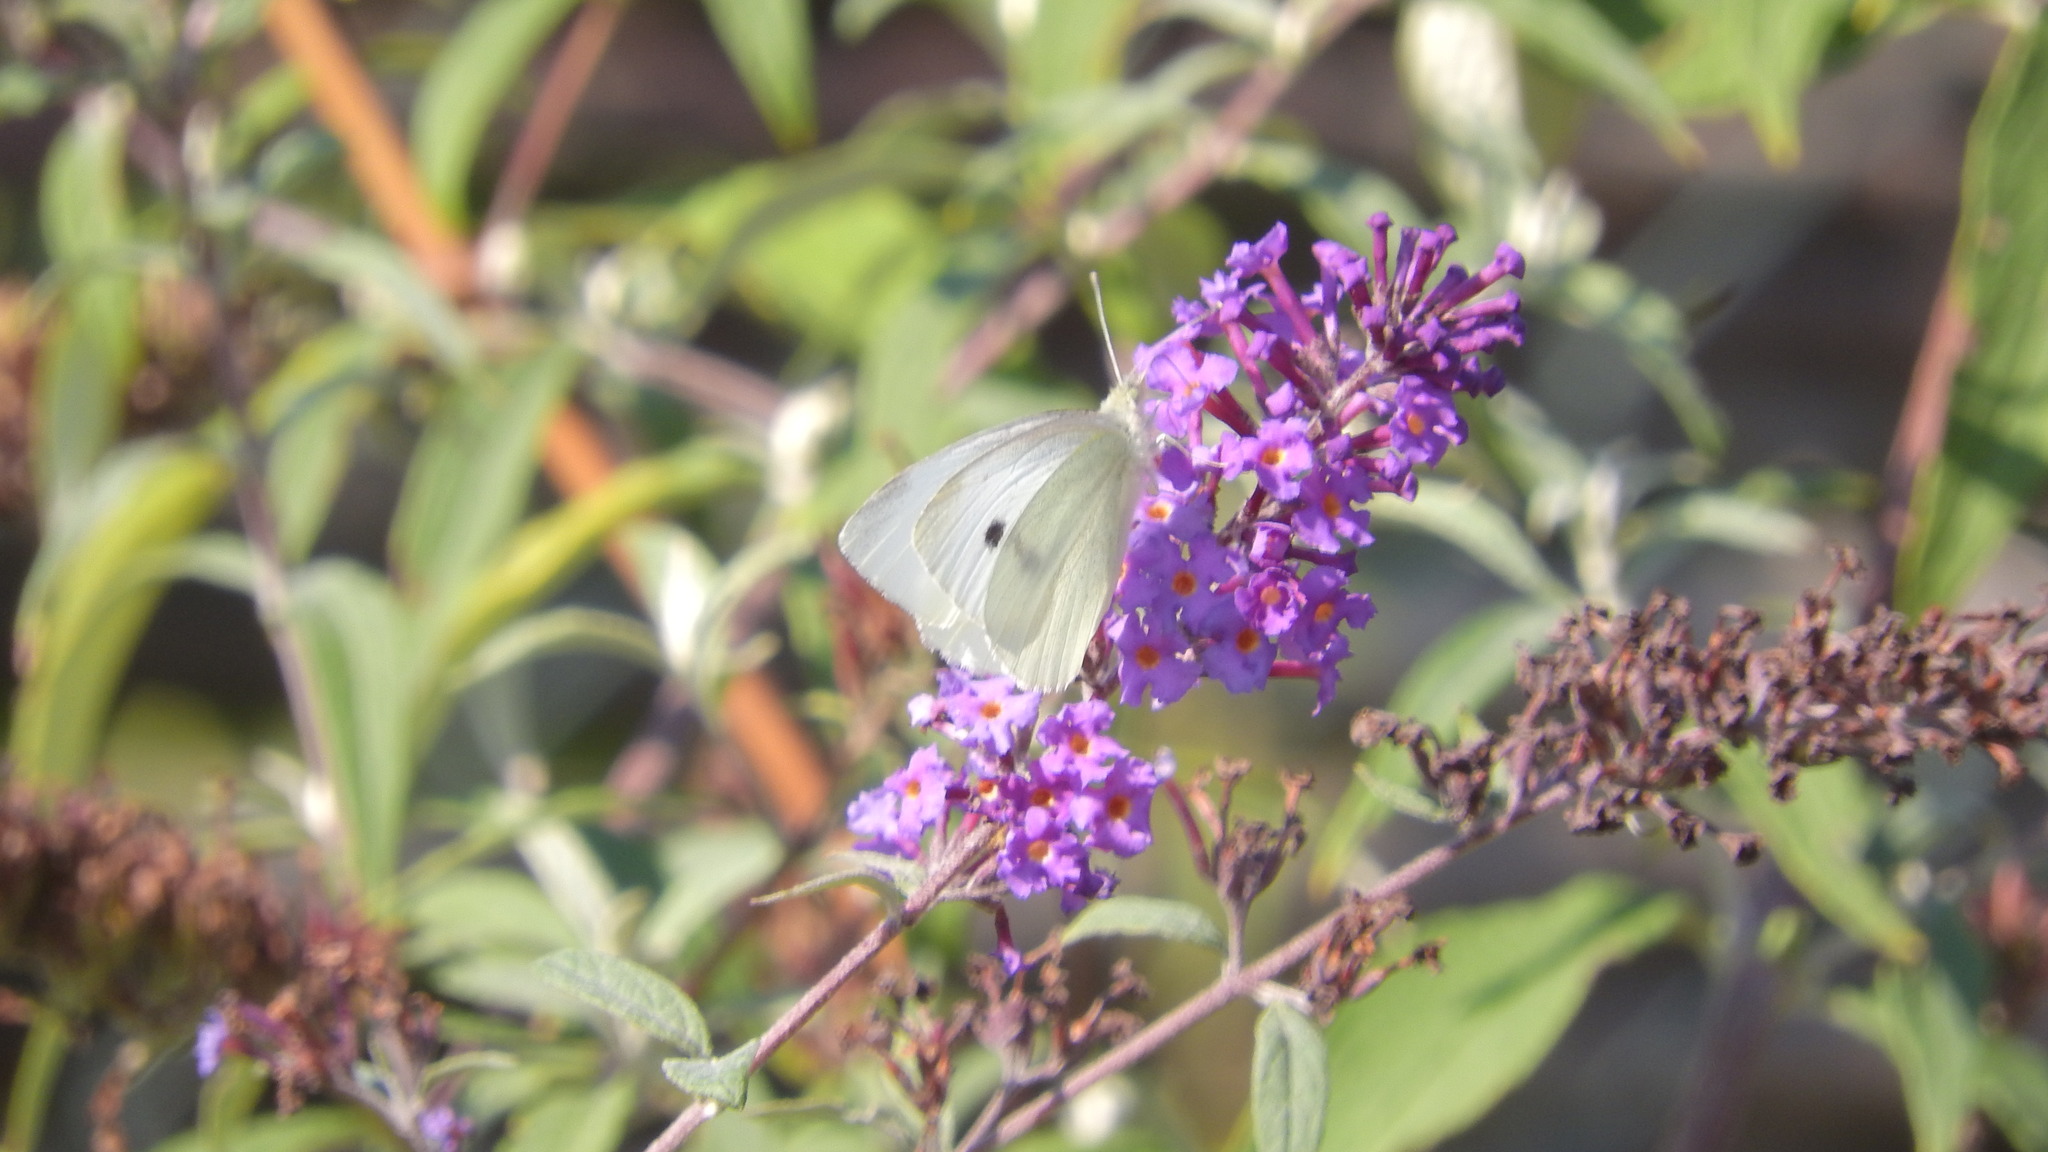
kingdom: Animalia
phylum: Arthropoda
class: Insecta
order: Lepidoptera
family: Pieridae
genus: Pieris
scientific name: Pieris rapae
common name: Small white
